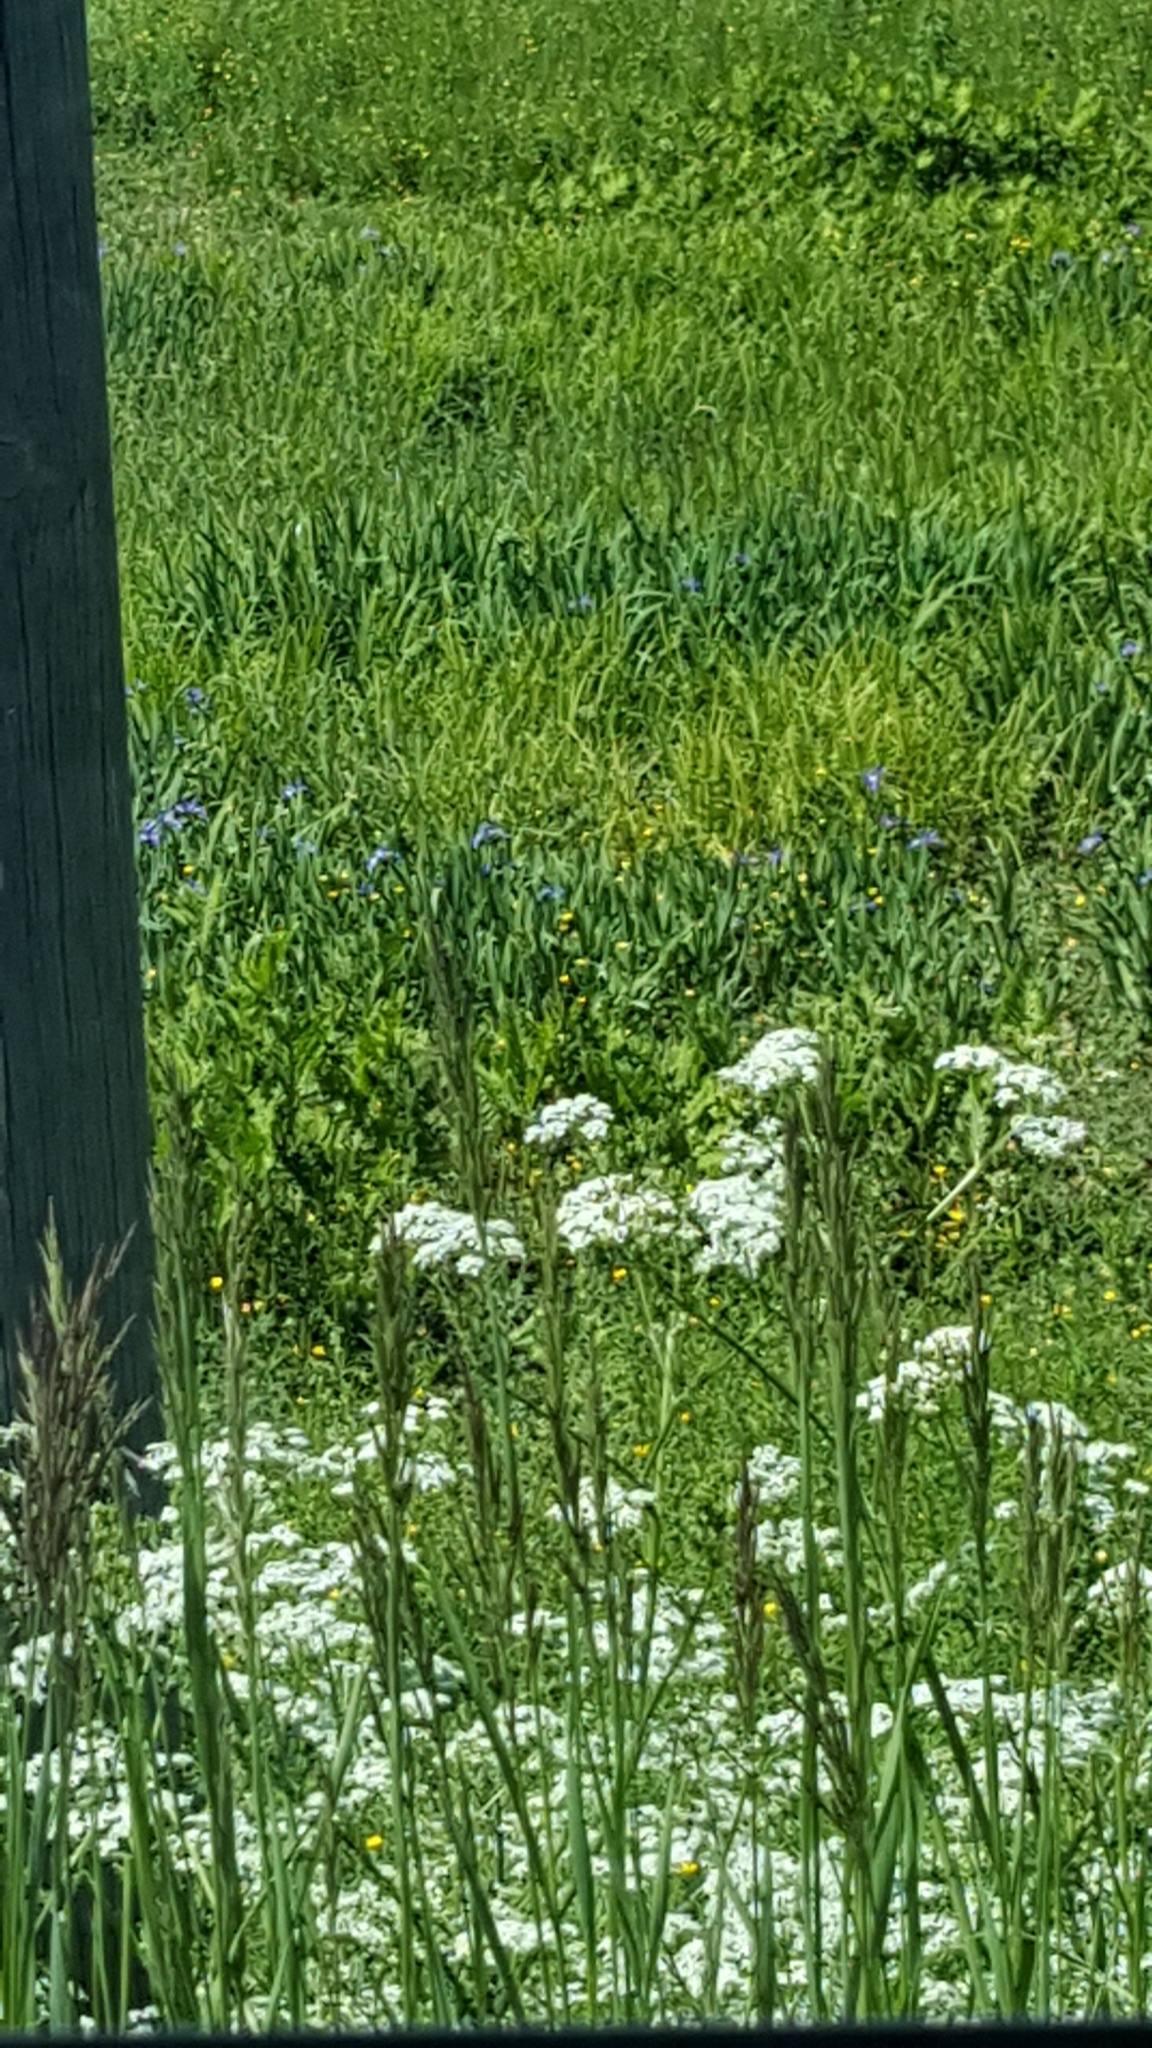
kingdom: Plantae
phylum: Tracheophyta
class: Liliopsida
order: Asparagales
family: Iridaceae
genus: Iris
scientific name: Iris versicolor
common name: Purple iris
